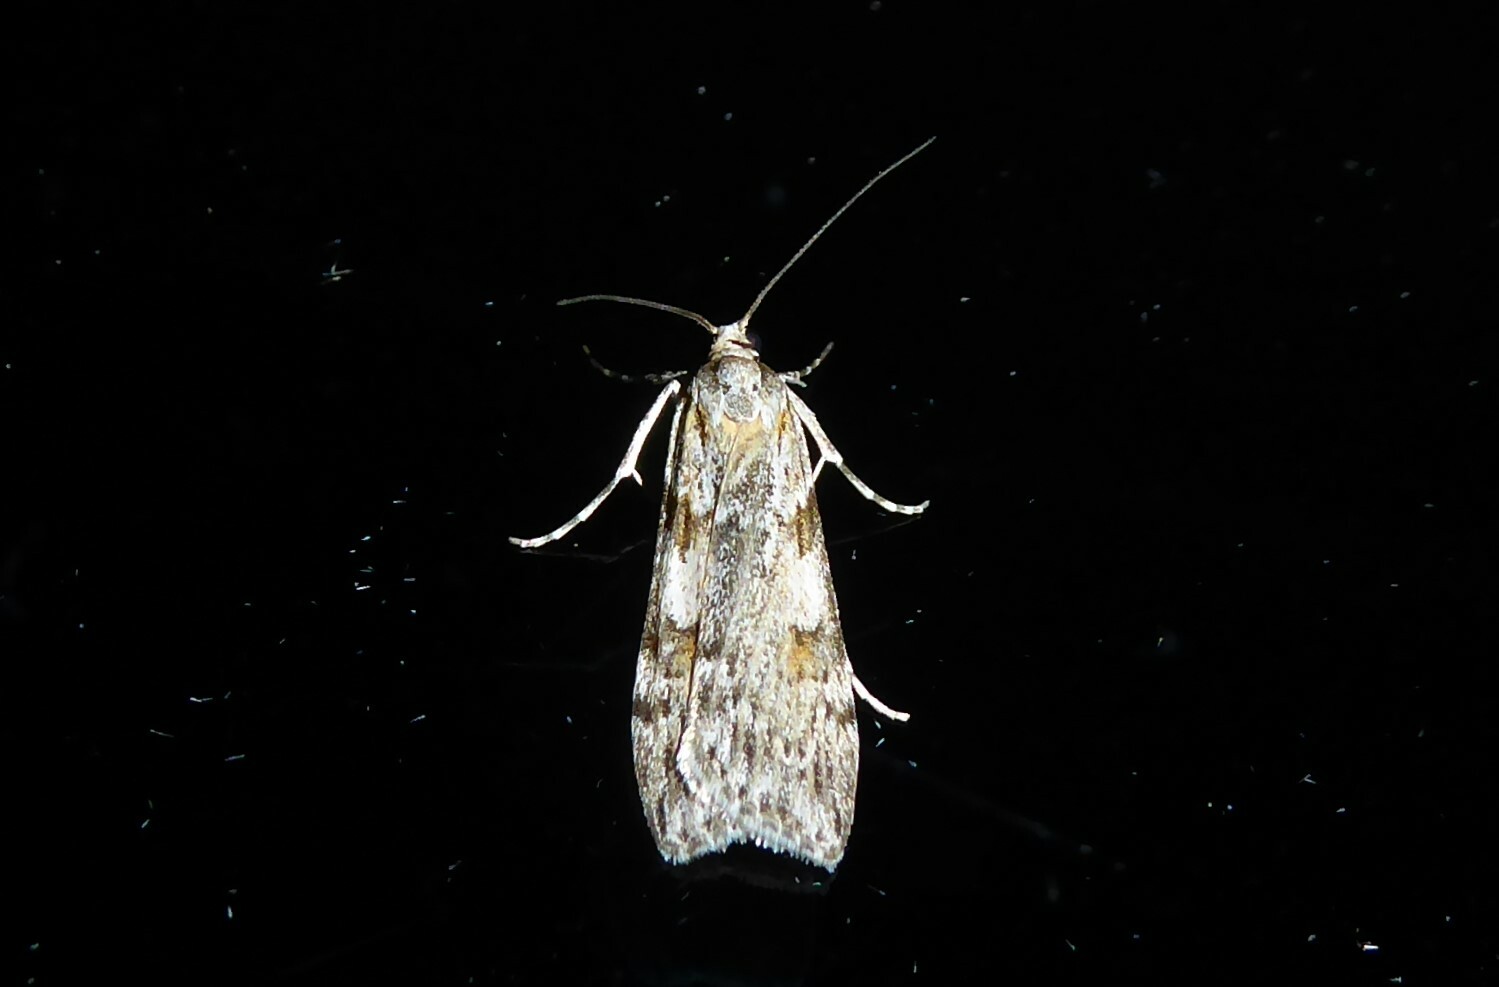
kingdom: Animalia
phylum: Arthropoda
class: Insecta
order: Lepidoptera
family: Crambidae
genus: Scoparia
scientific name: Scoparia halopis
